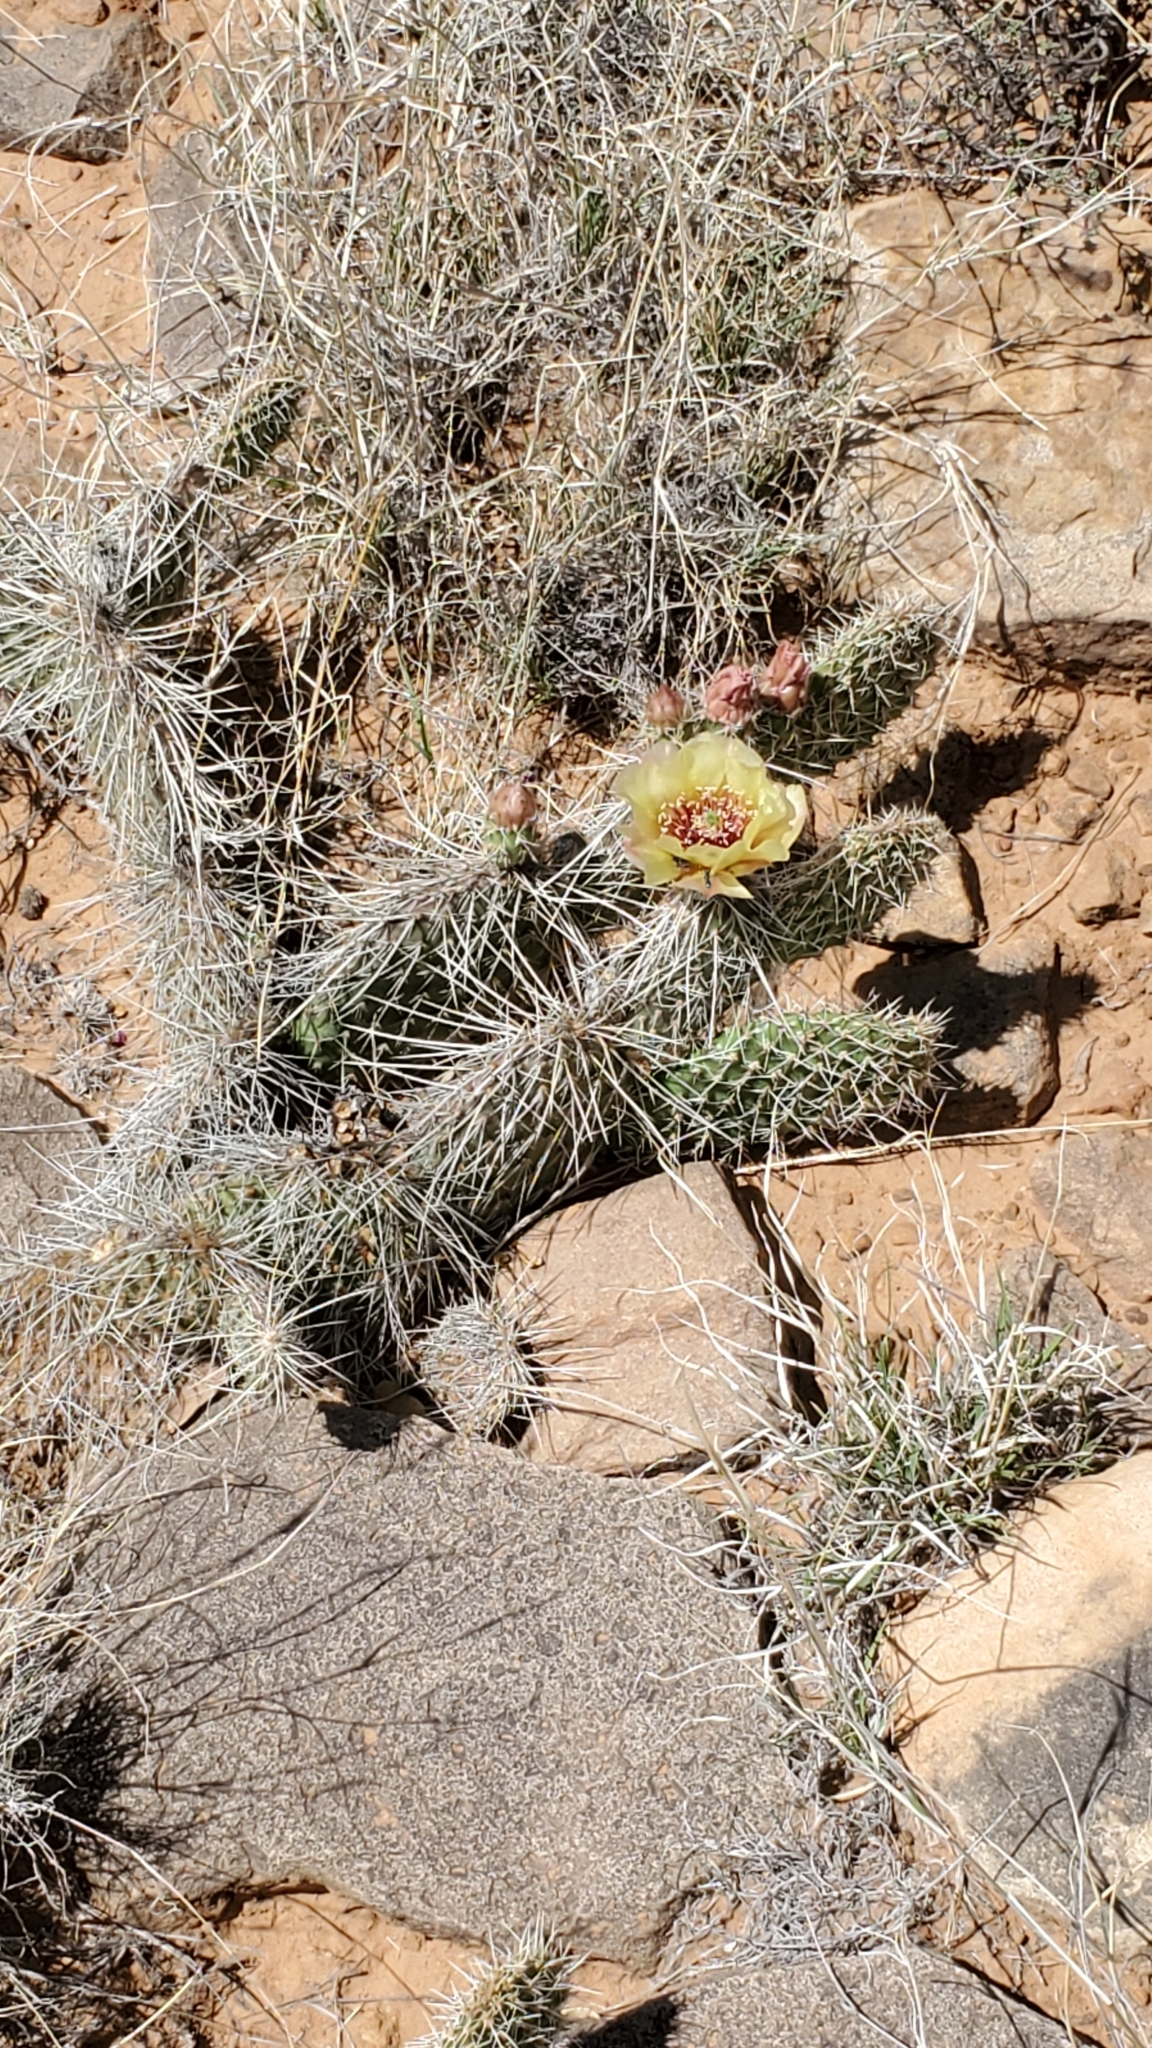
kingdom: Plantae
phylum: Tracheophyta
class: Magnoliopsida
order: Caryophyllales
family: Cactaceae
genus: Opuntia
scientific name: Opuntia polyacantha
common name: Plains prickly-pear
